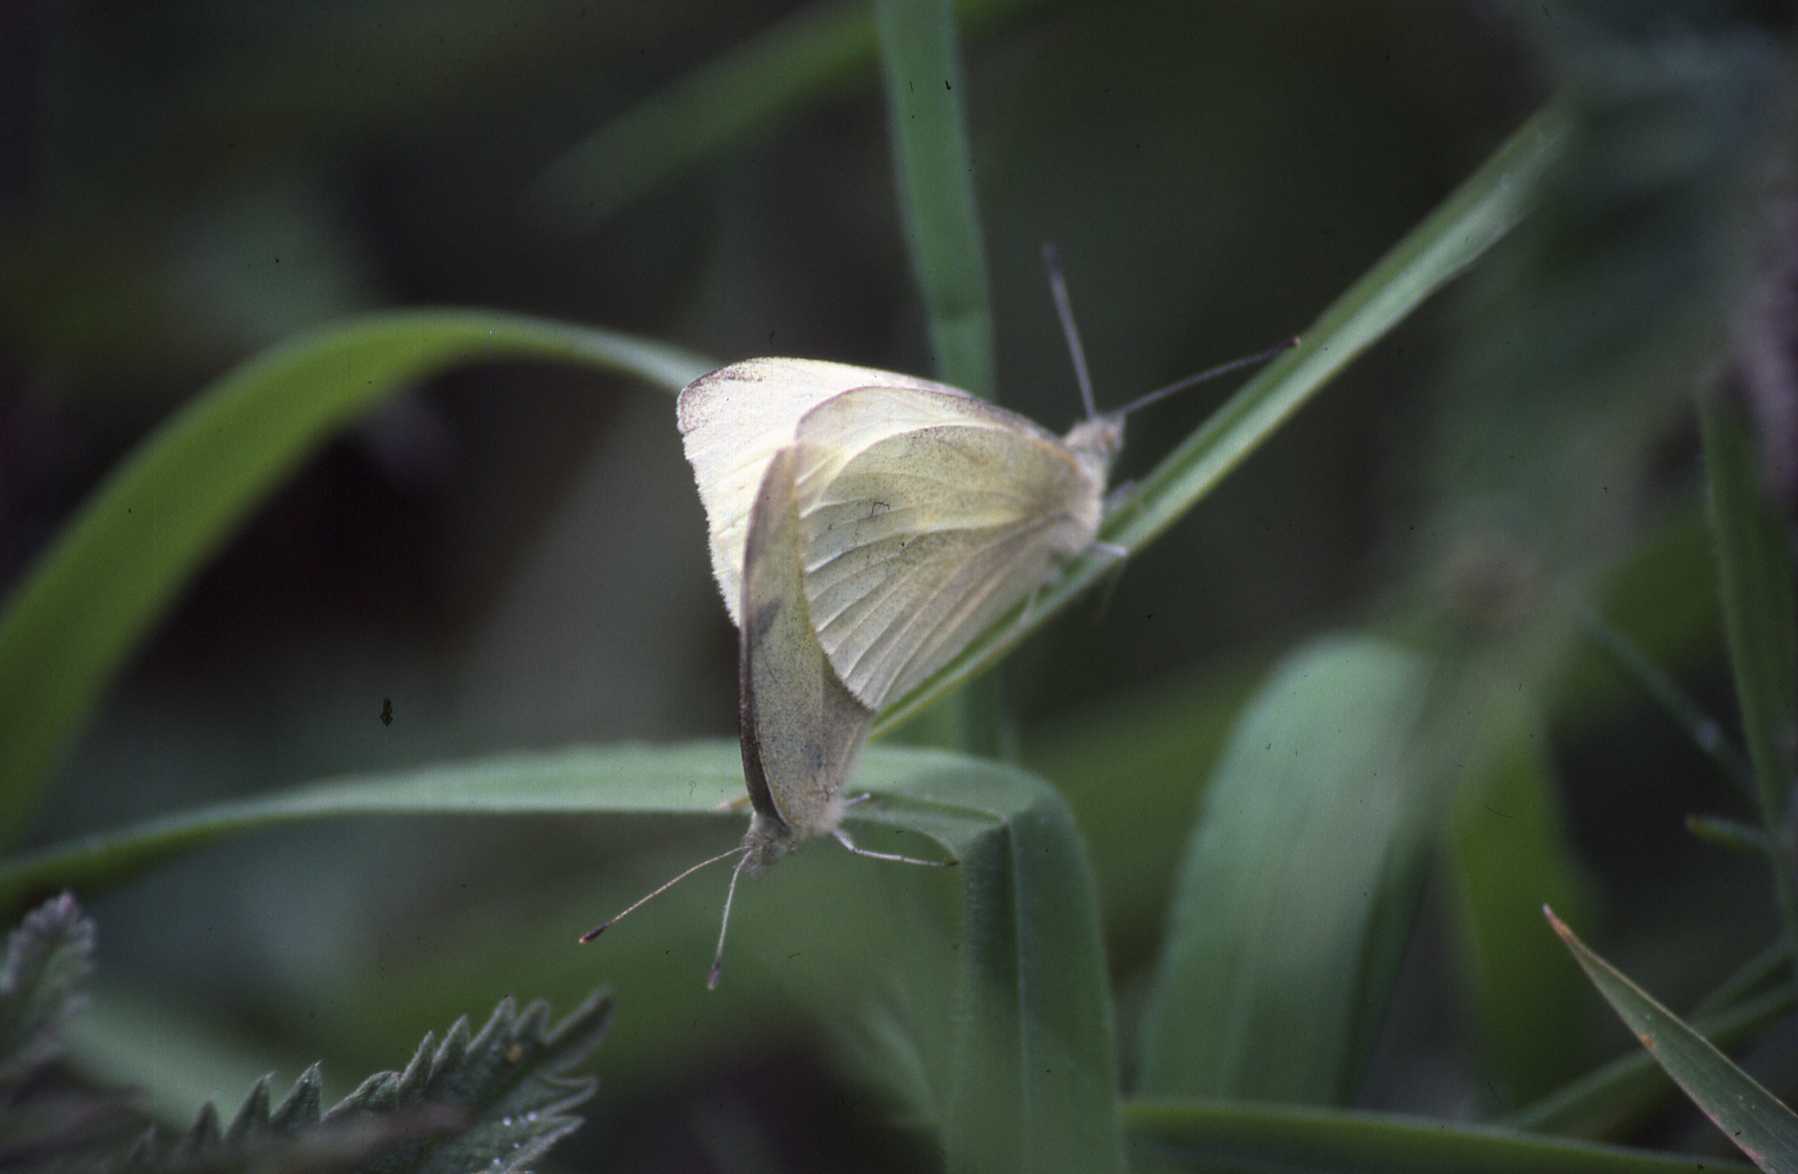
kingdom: Animalia
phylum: Arthropoda
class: Insecta
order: Lepidoptera
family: Pieridae
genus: Pieris
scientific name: Pieris rapae
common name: Small white
